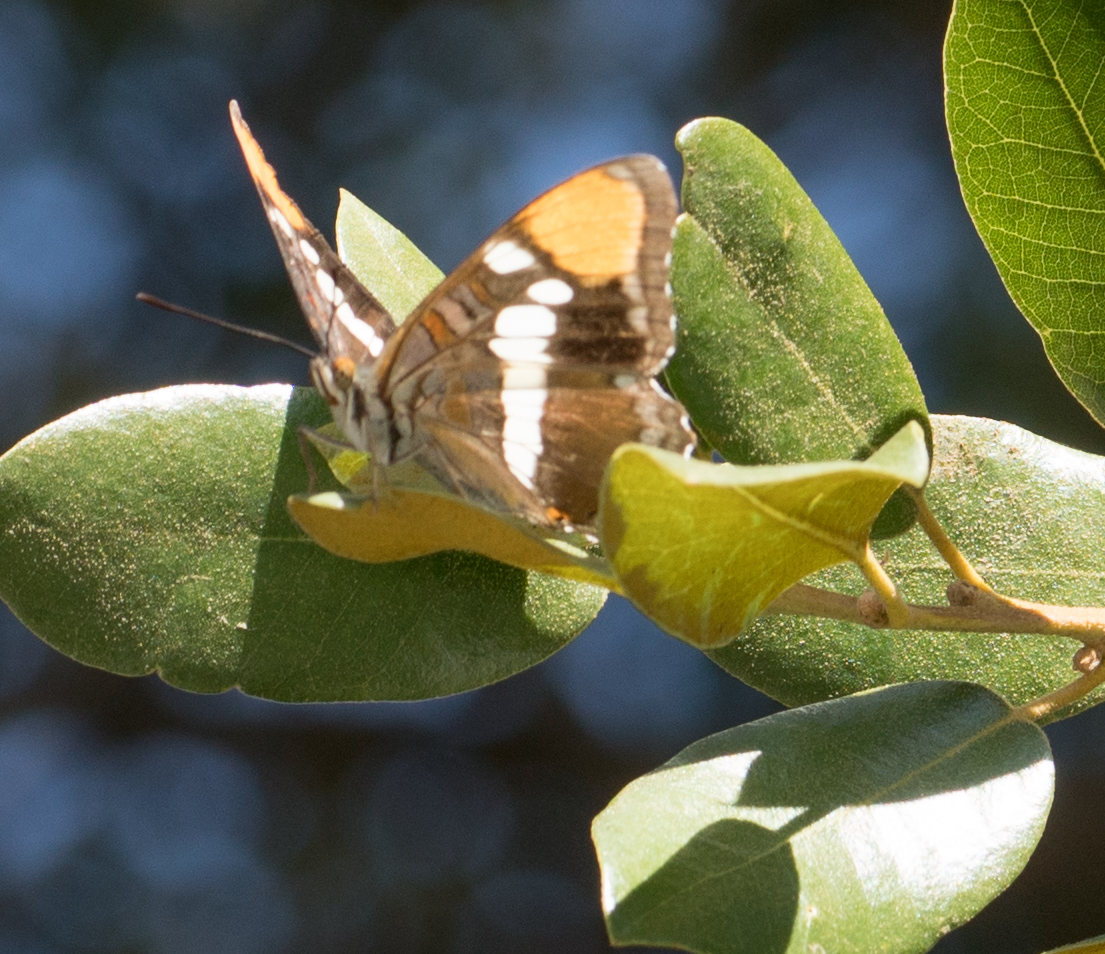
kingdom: Animalia
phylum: Arthropoda
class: Insecta
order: Lepidoptera
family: Nymphalidae
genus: Limenitis
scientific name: Limenitis bredowii
